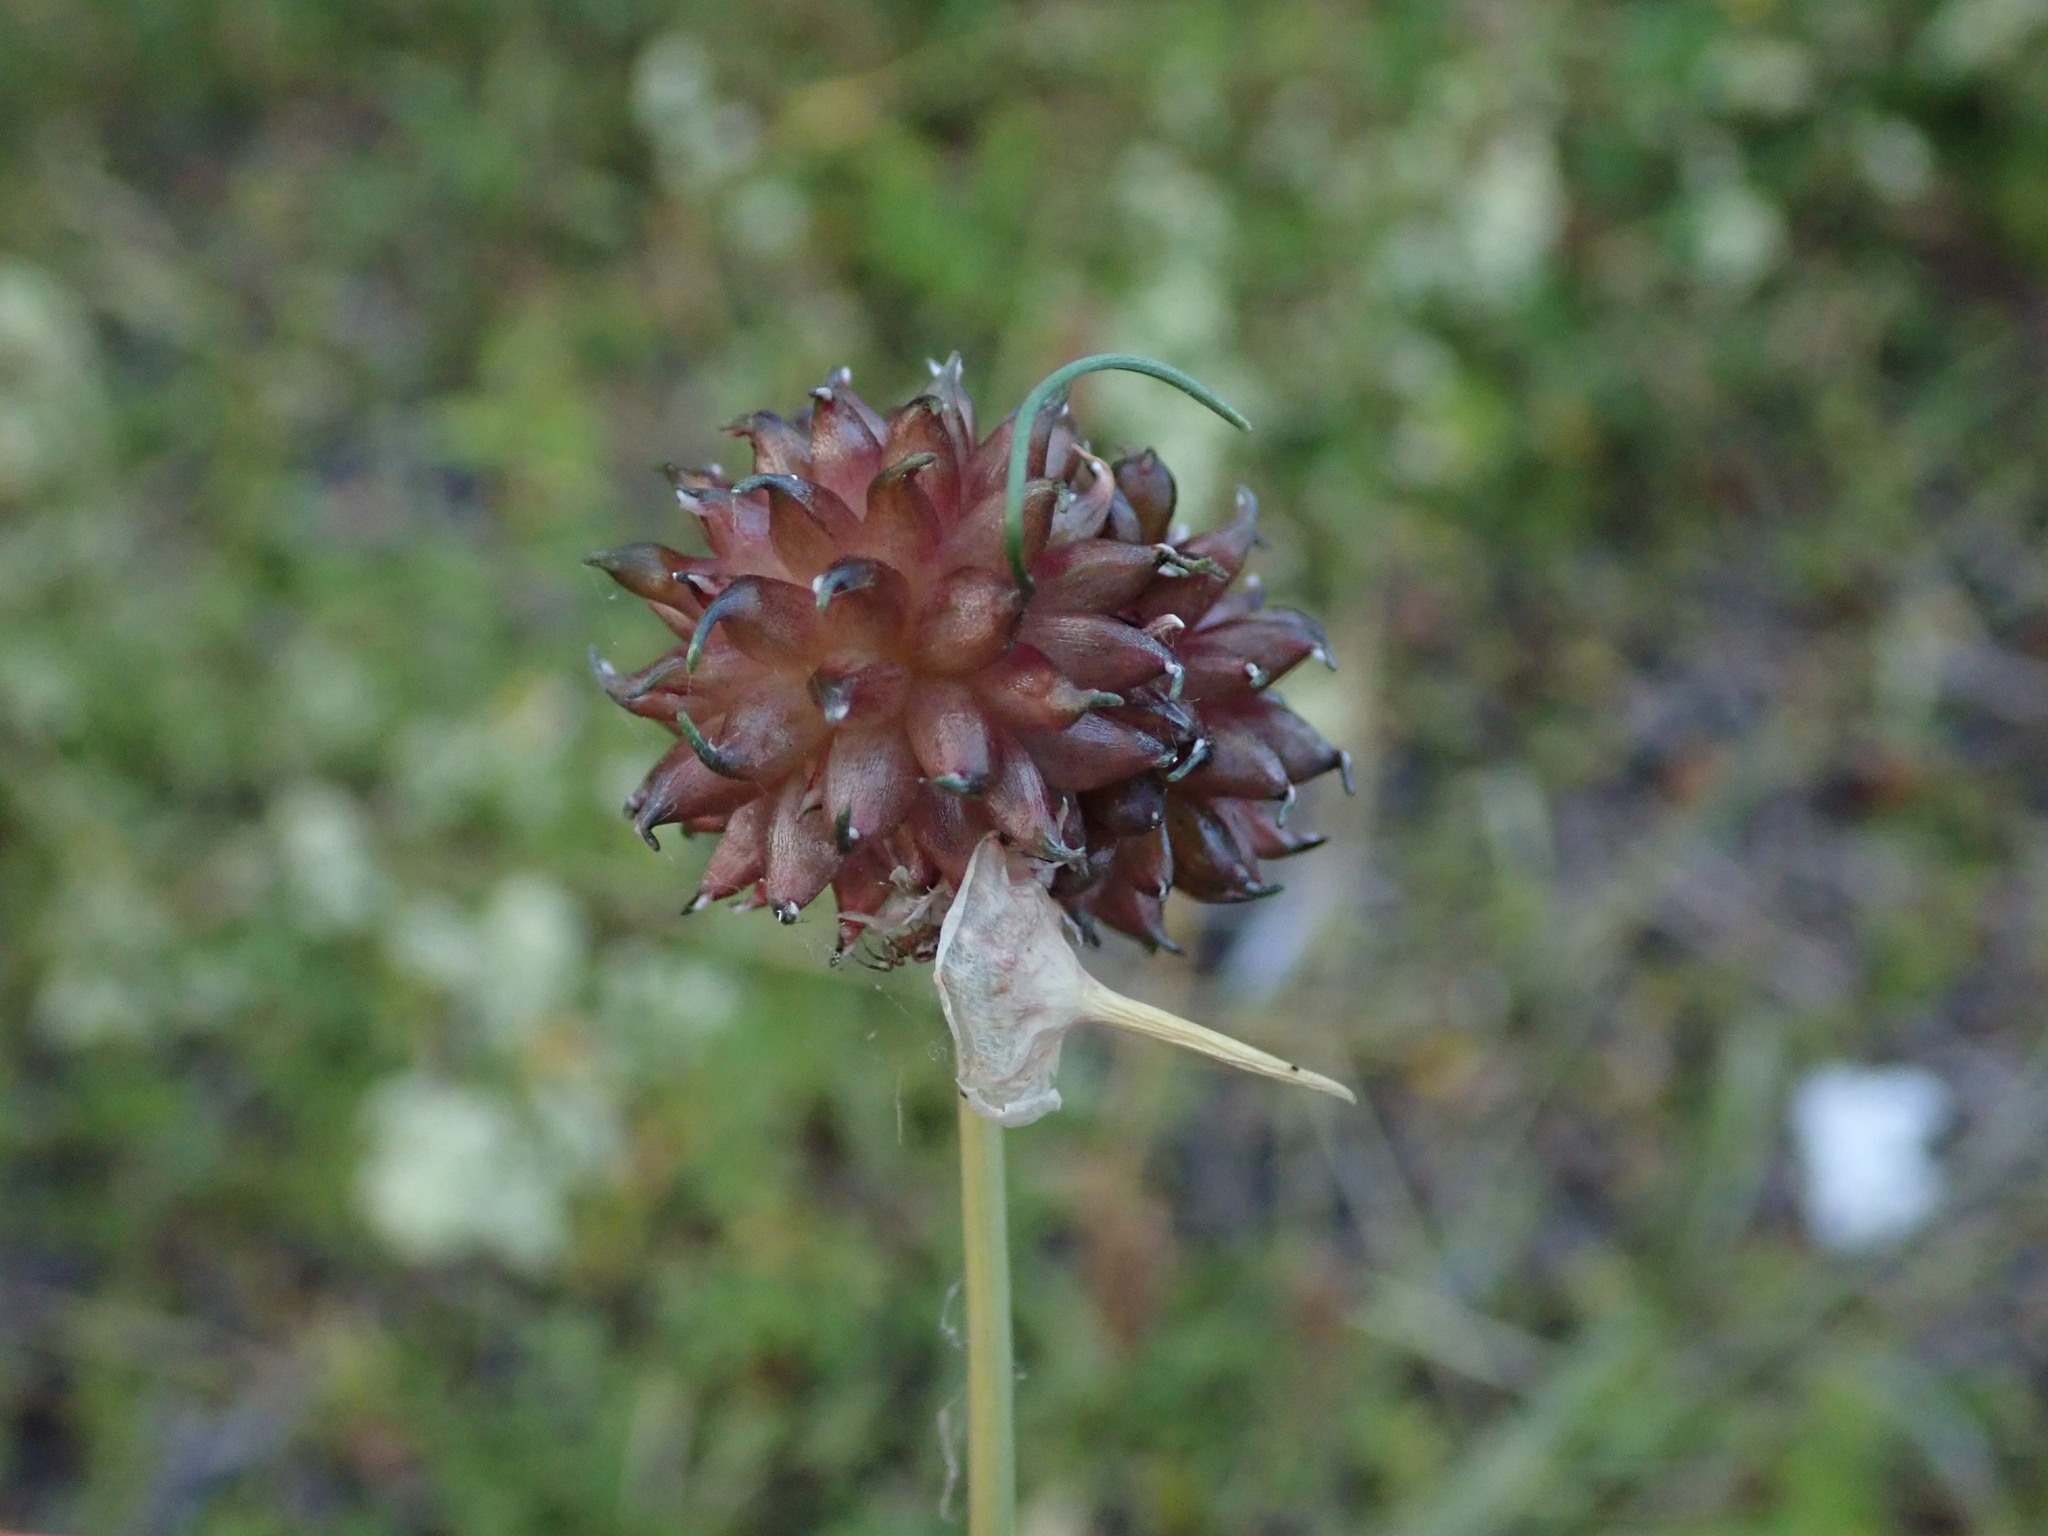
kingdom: Plantae
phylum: Tracheophyta
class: Liliopsida
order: Asparagales
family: Amaryllidaceae
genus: Allium
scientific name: Allium vineale
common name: Crow garlic
